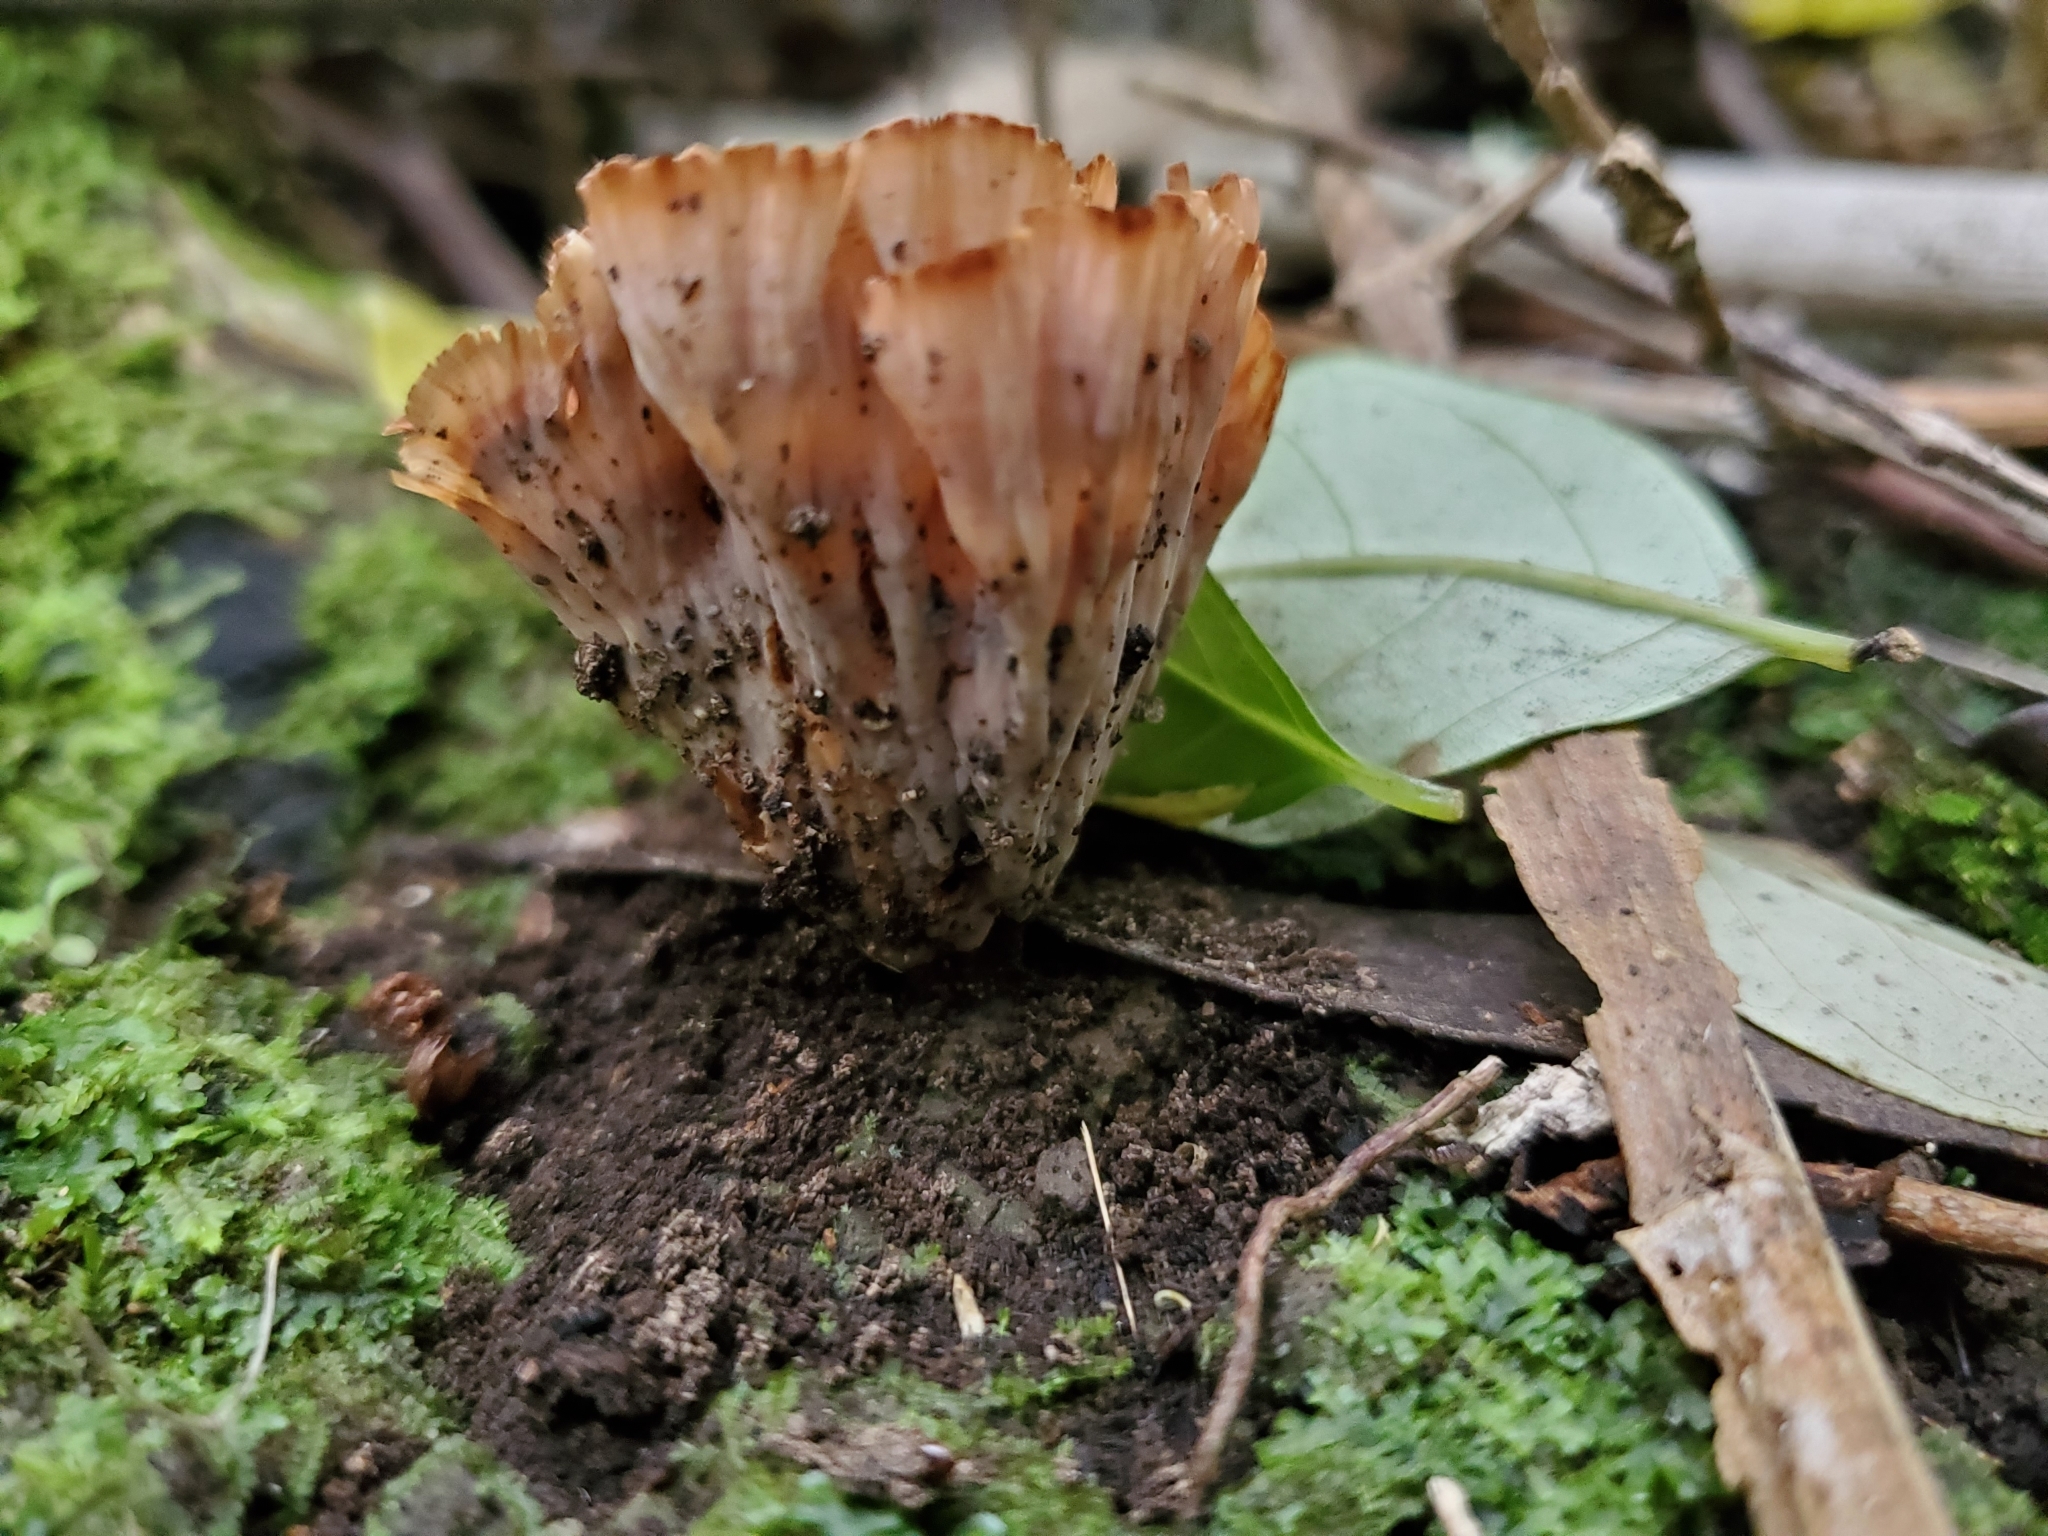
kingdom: Fungi
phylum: Basidiomycota
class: Agaricomycetes
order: Polyporales
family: Podoscyphaceae
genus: Podoscypha
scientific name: Podoscypha petalodes
